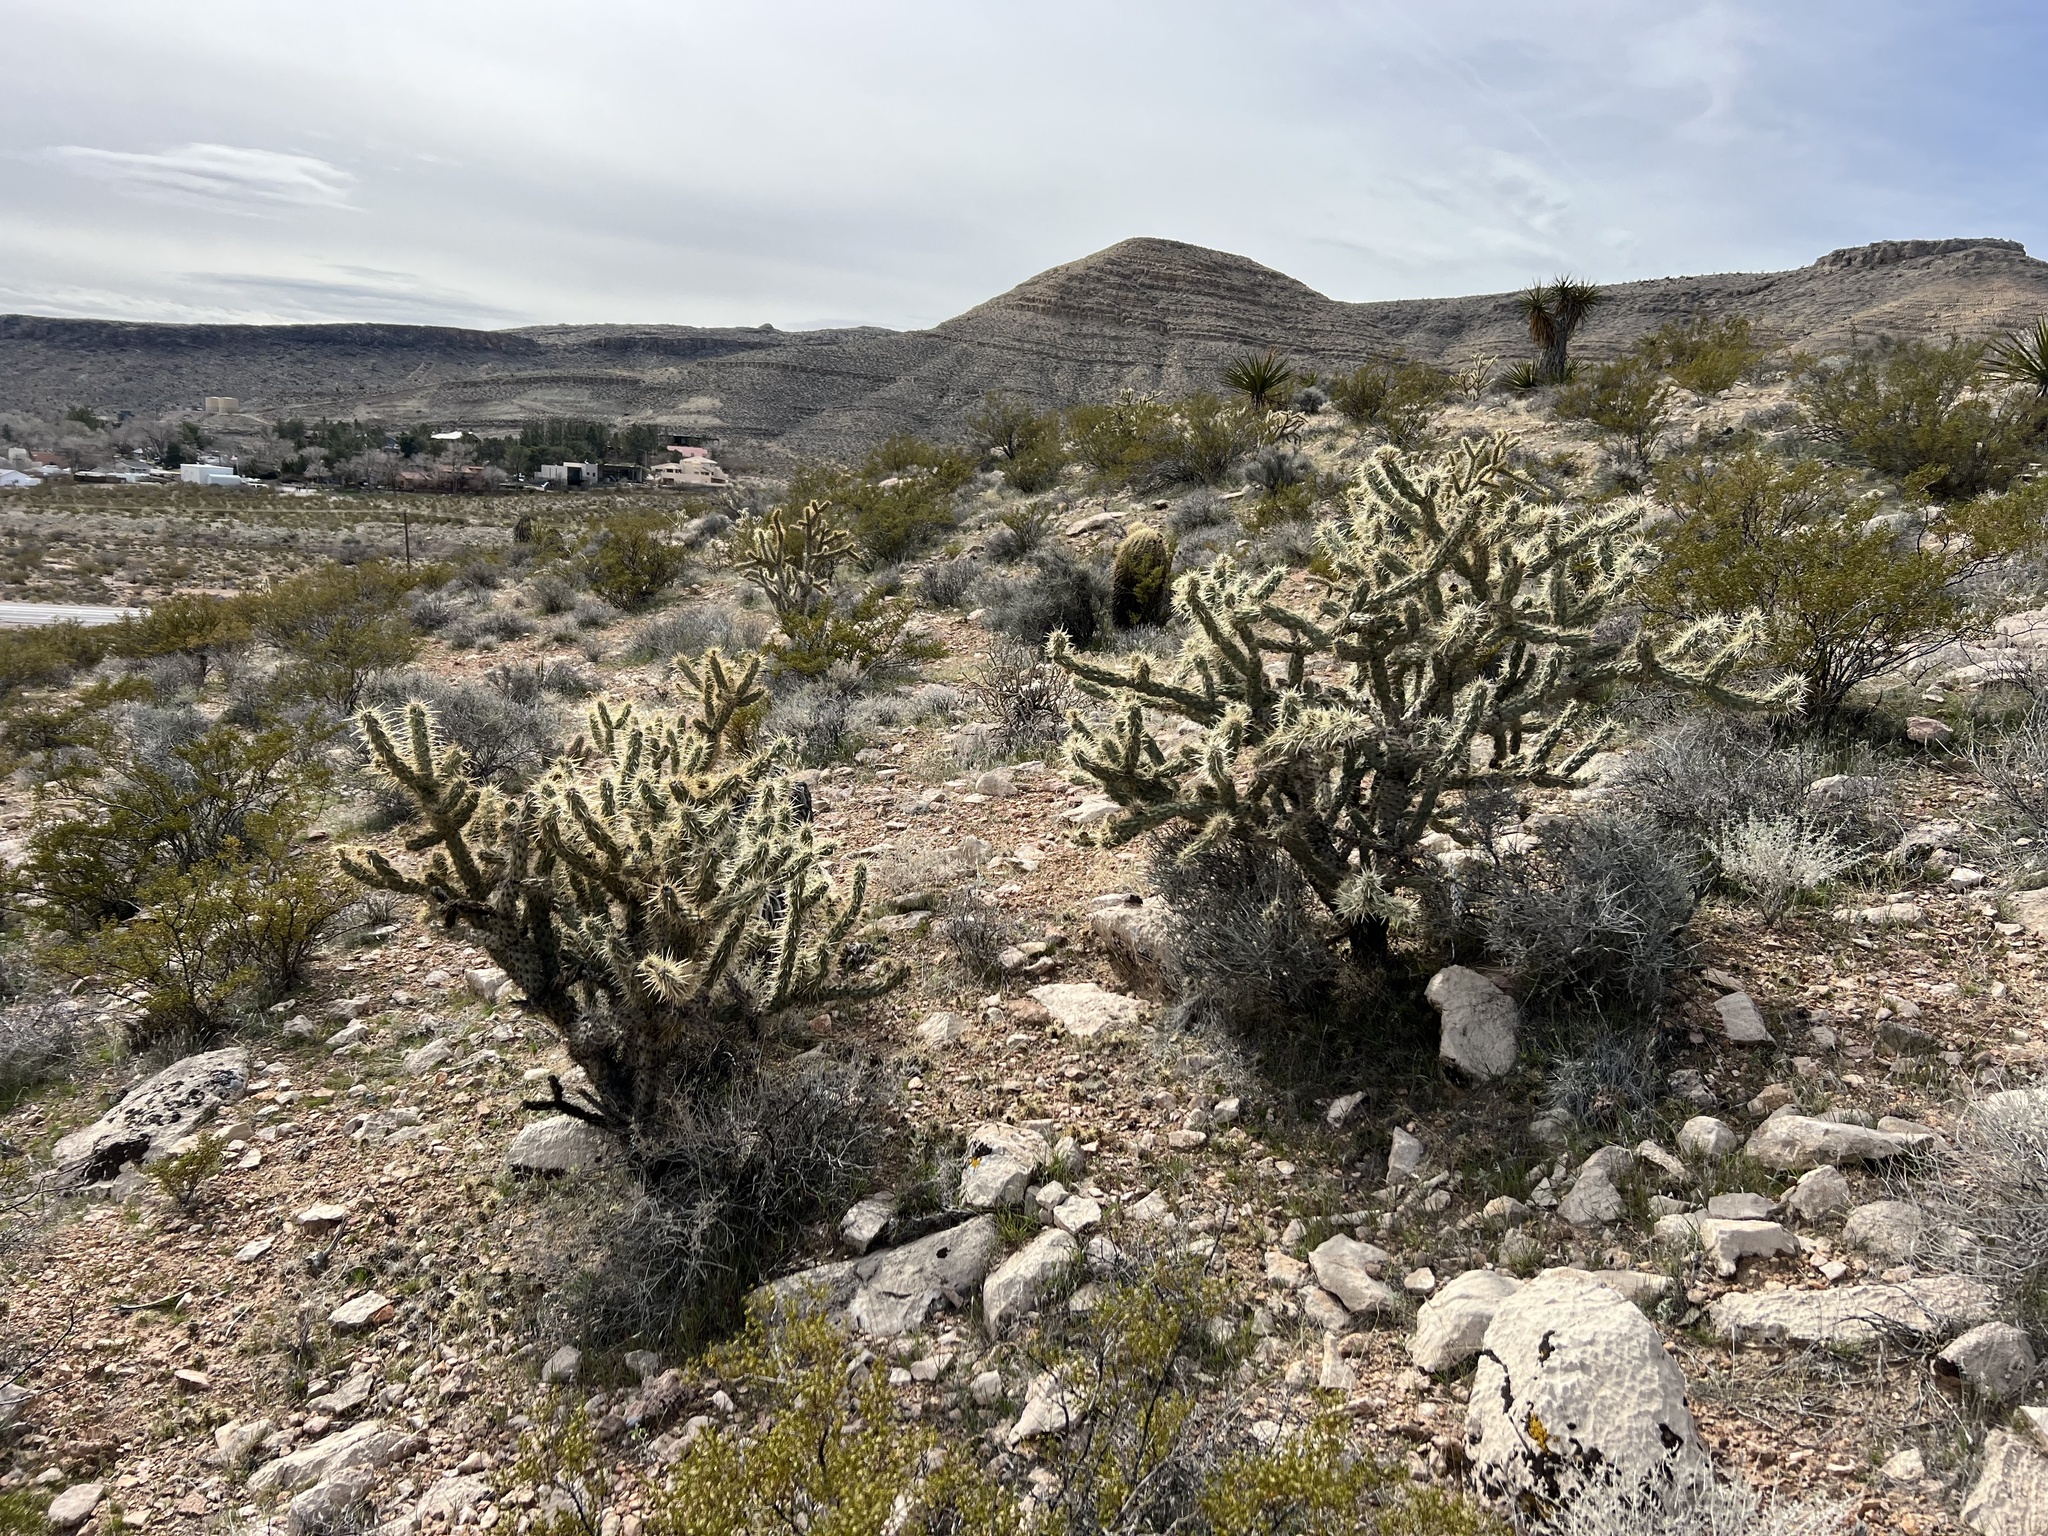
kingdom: Plantae
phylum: Tracheophyta
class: Magnoliopsida
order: Caryophyllales
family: Cactaceae
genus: Cylindropuntia
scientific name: Cylindropuntia acanthocarpa
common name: Buckhorn cholla
